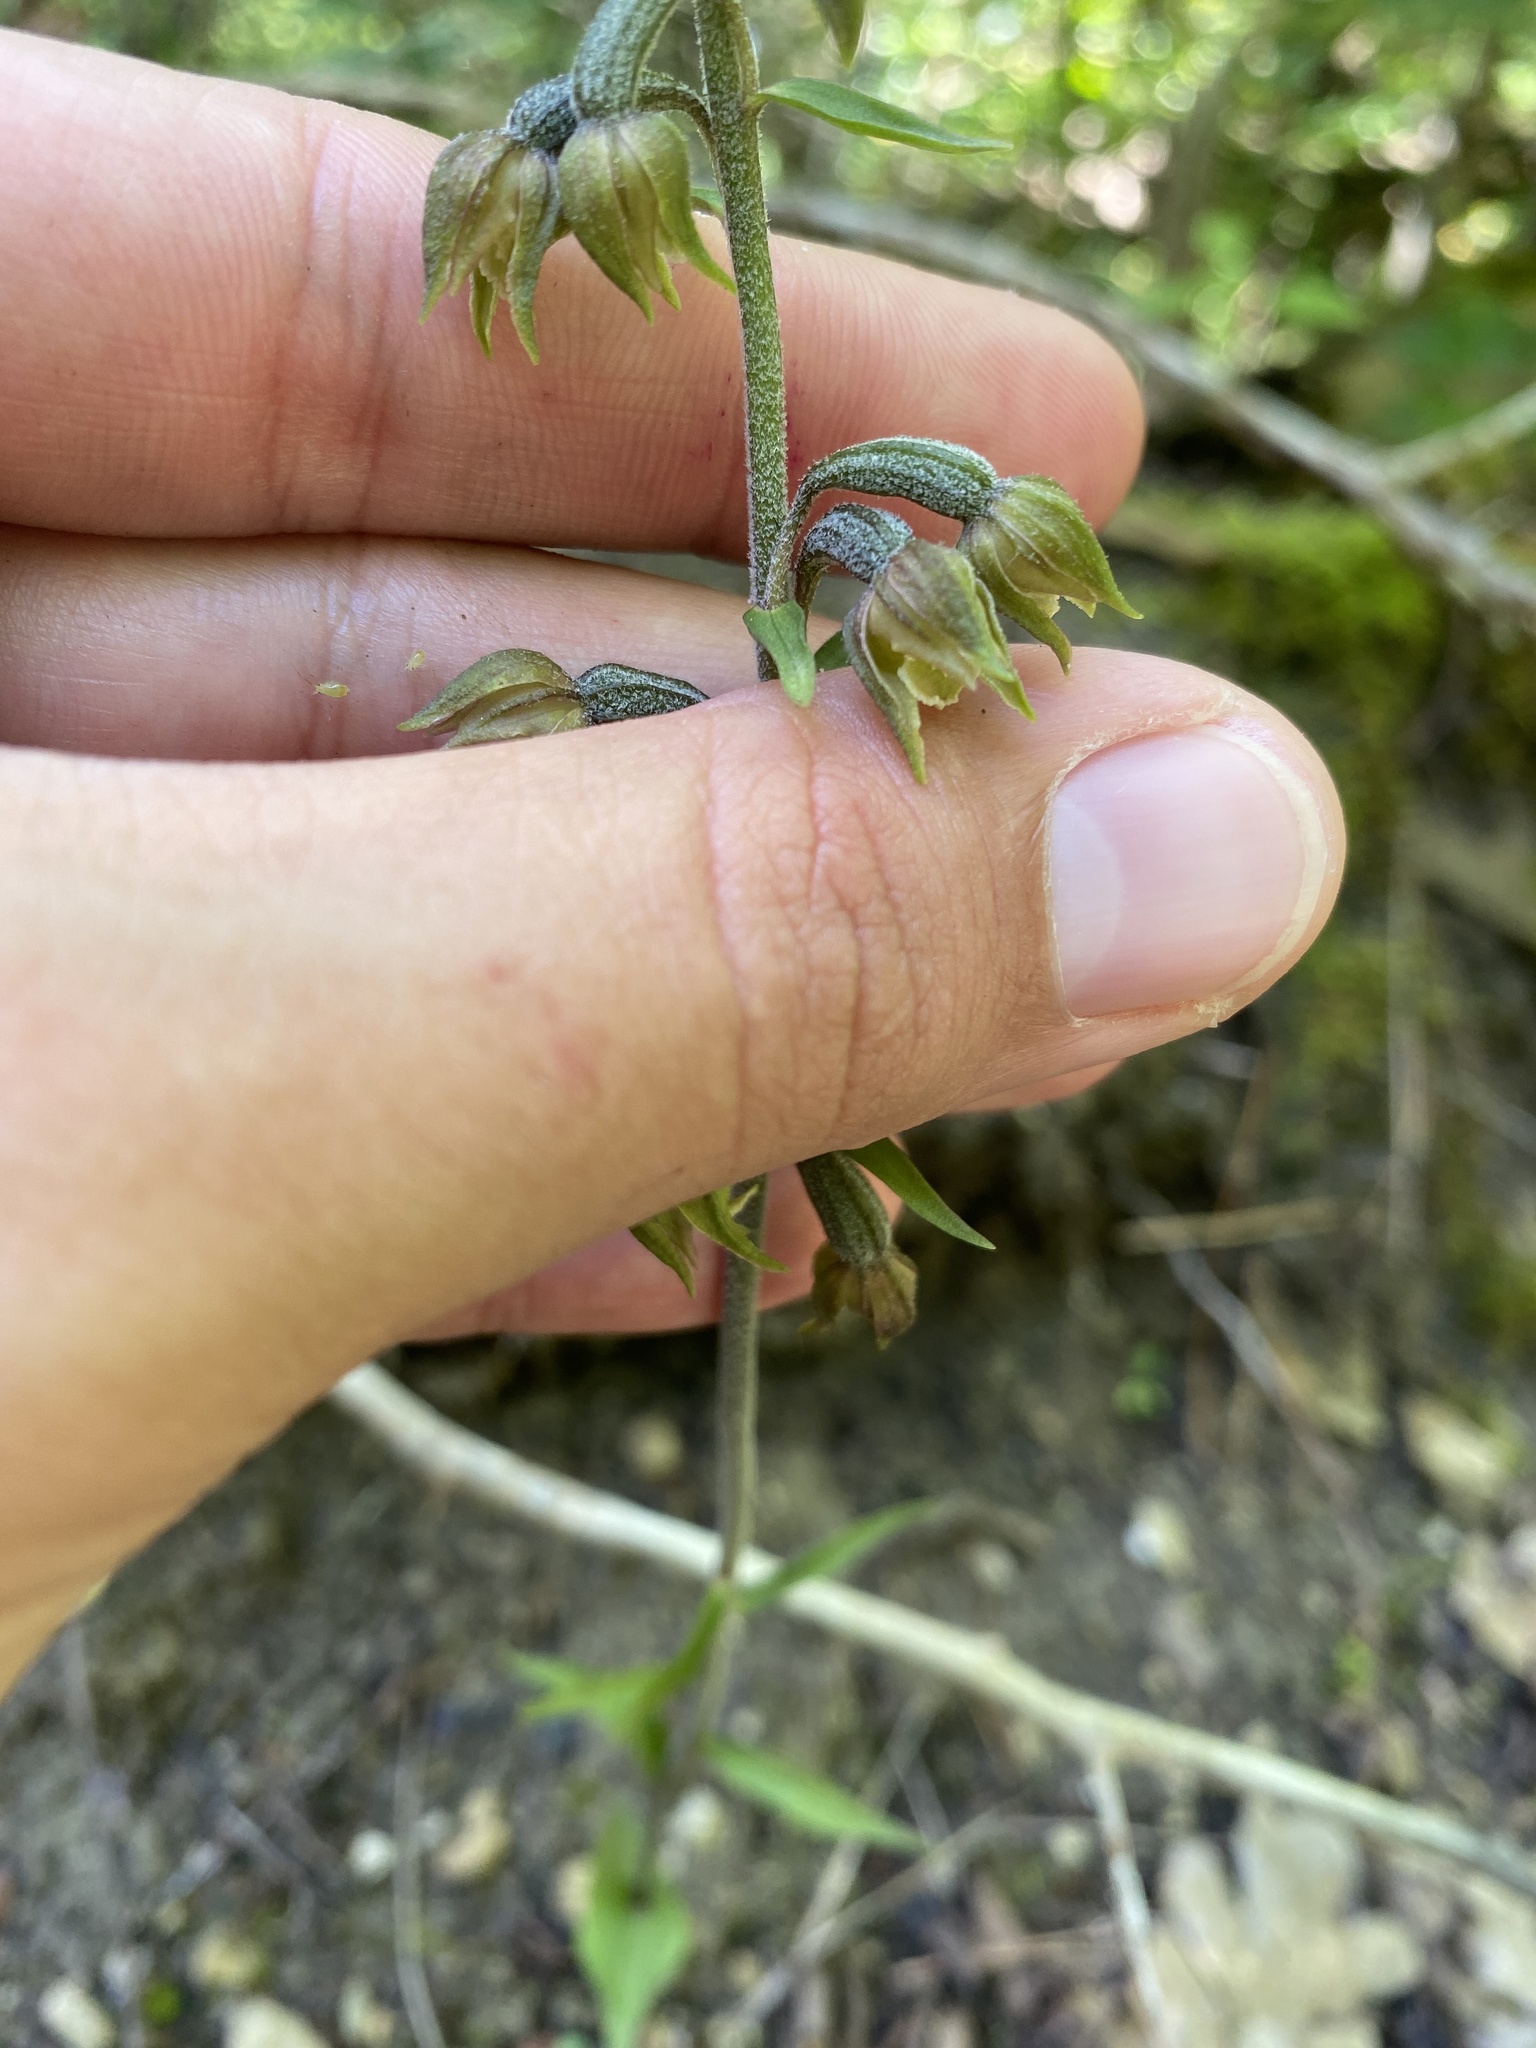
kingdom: Plantae
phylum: Tracheophyta
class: Liliopsida
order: Asparagales
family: Orchidaceae
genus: Epipactis
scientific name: Epipactis microphylla
